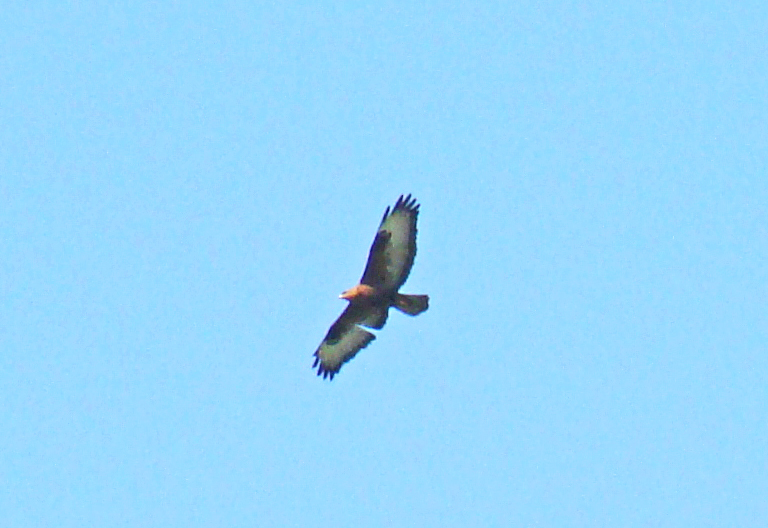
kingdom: Animalia
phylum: Chordata
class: Aves
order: Accipitriformes
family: Accipitridae
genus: Buteo
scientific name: Buteo rufinus
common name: Long-legged buzzard
